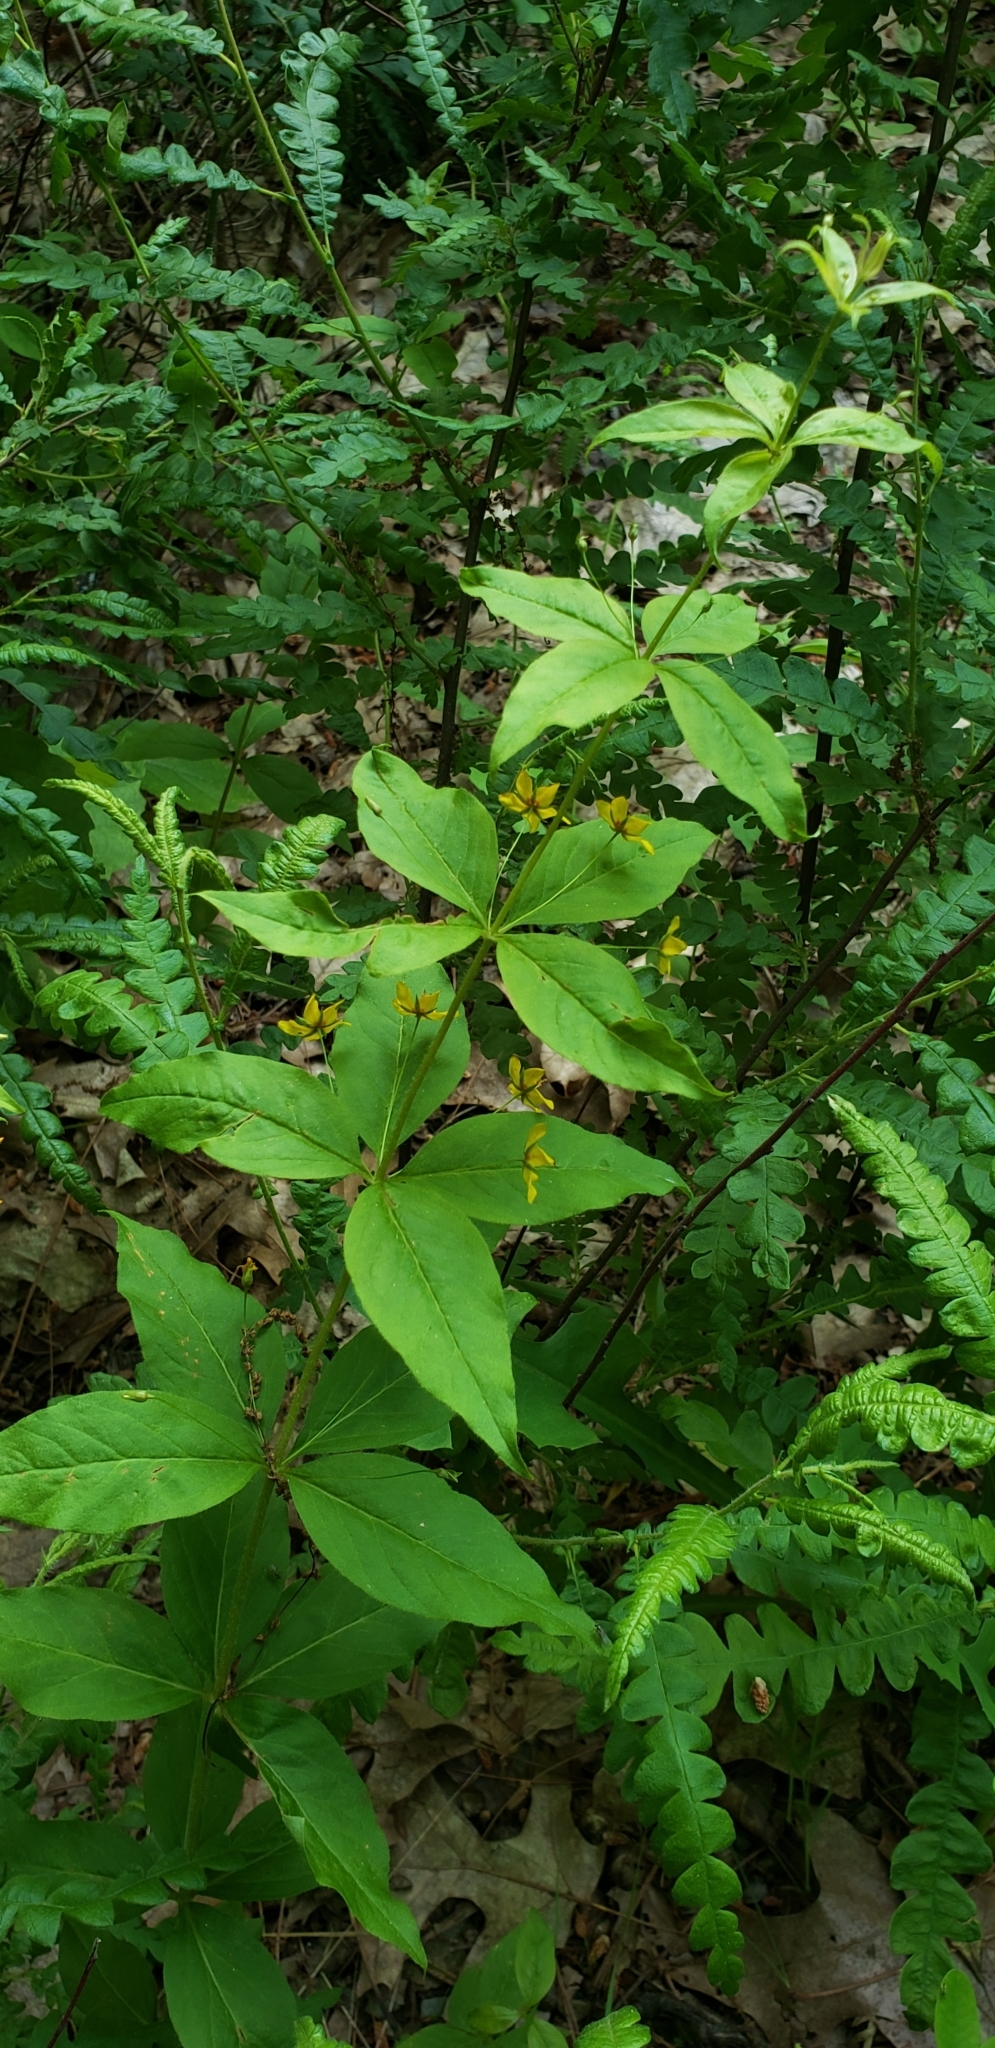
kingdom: Plantae
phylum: Tracheophyta
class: Magnoliopsida
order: Ericales
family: Primulaceae
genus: Lysimachia
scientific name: Lysimachia quadrifolia
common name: Whorled loosestrife
